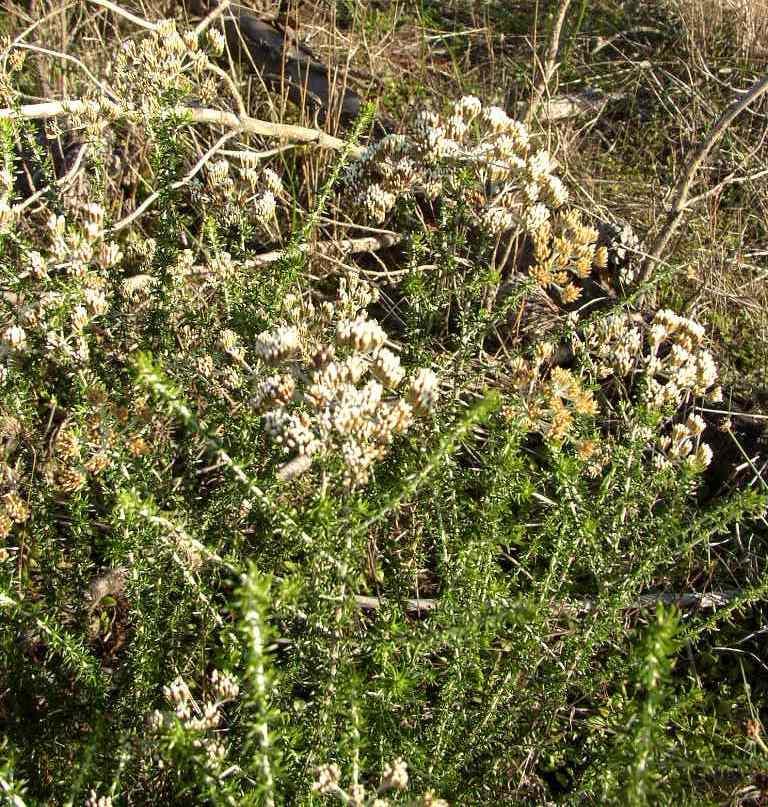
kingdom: Plantae
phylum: Tracheophyta
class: Magnoliopsida
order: Asterales
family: Asteraceae
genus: Metalasia
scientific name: Metalasia densa
